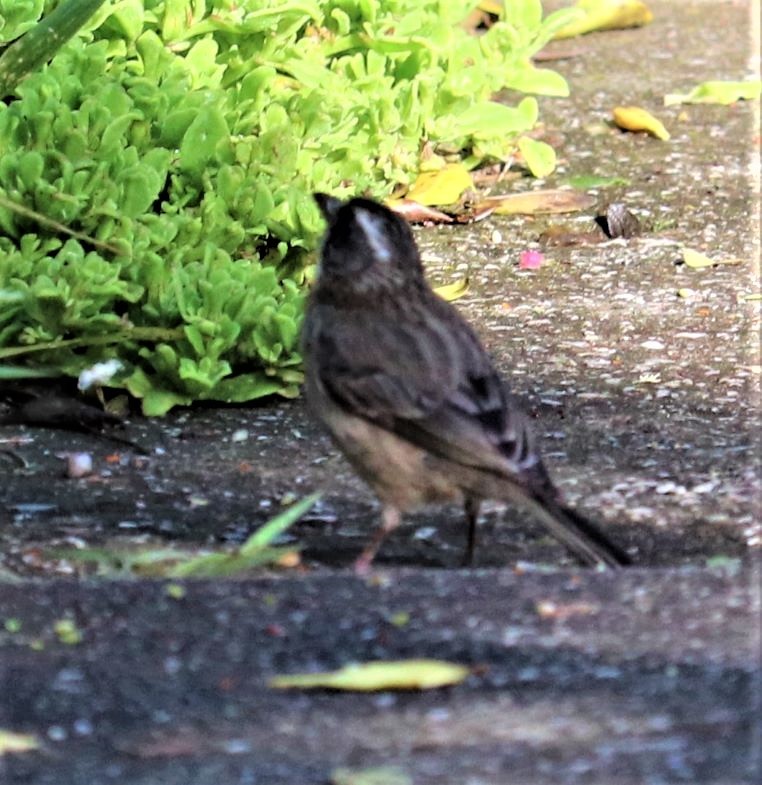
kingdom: Animalia
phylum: Chordata
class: Aves
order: Passeriformes
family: Fringillidae
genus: Crithagra
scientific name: Crithagra gularis
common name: Streaky-headed seedeater
